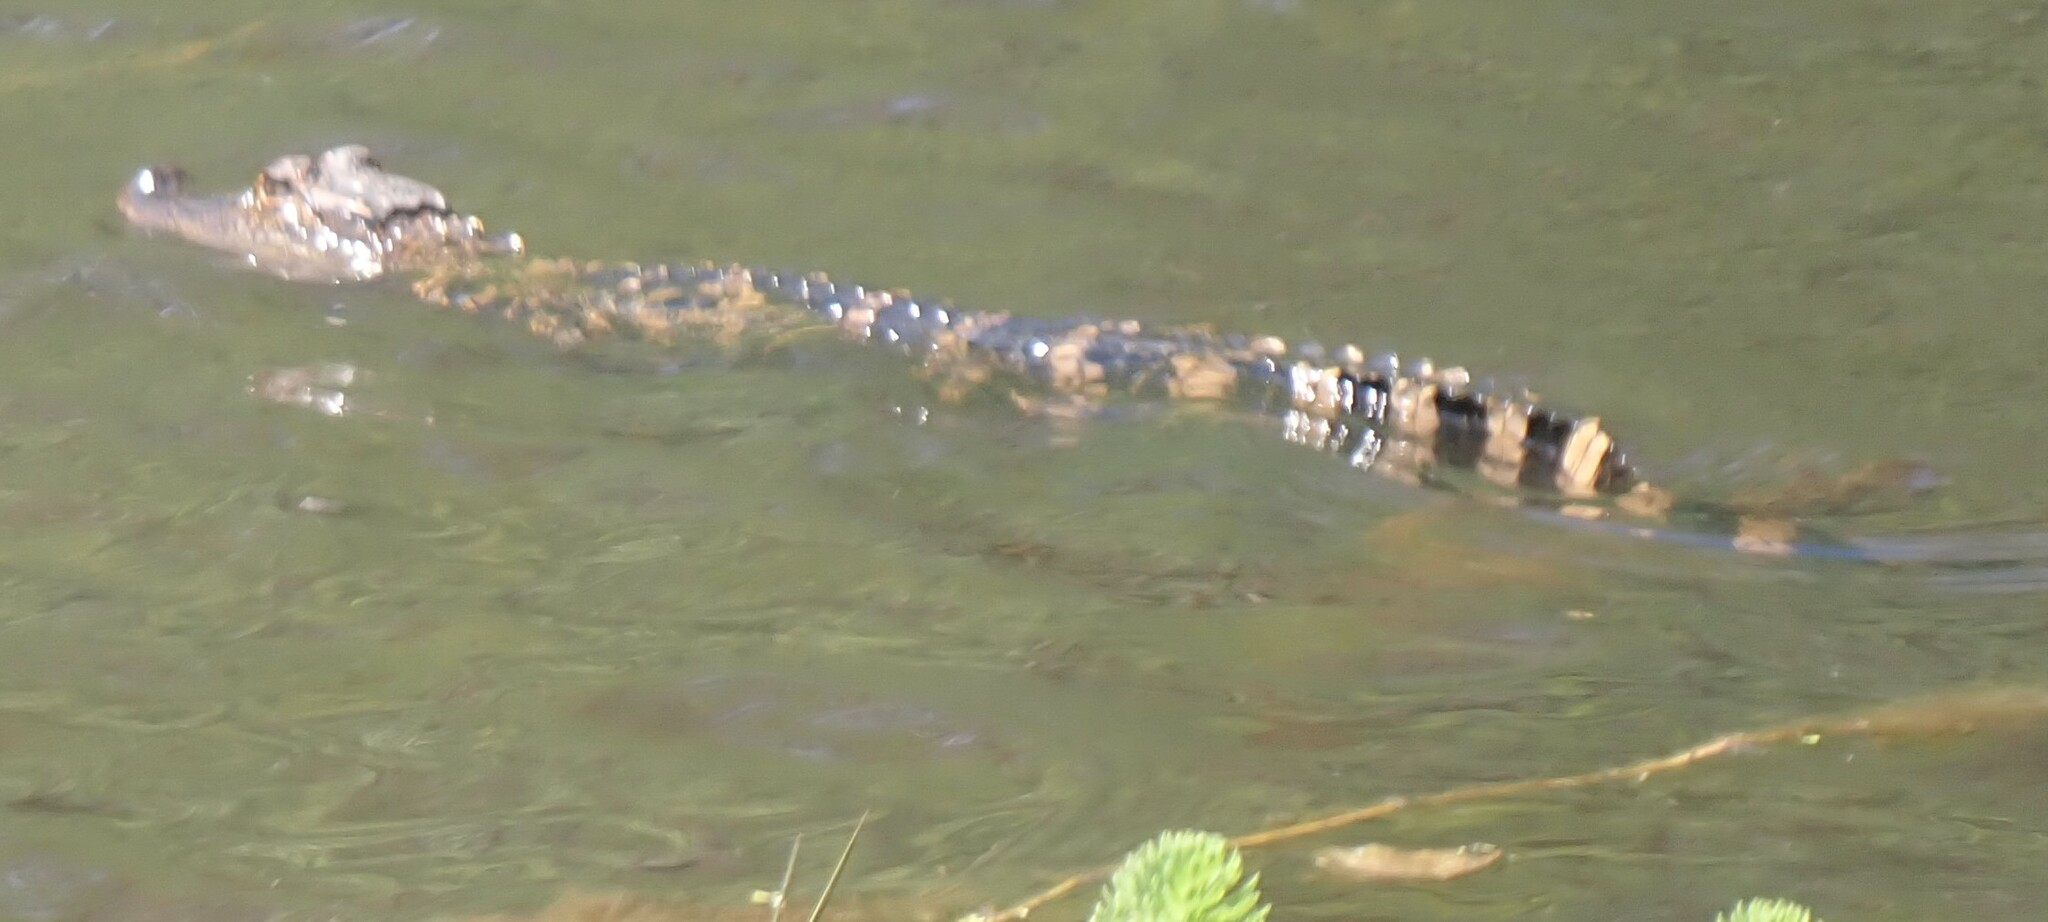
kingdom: Animalia
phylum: Chordata
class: Crocodylia
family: Alligatoridae
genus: Alligator
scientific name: Alligator mississippiensis
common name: American alligator
